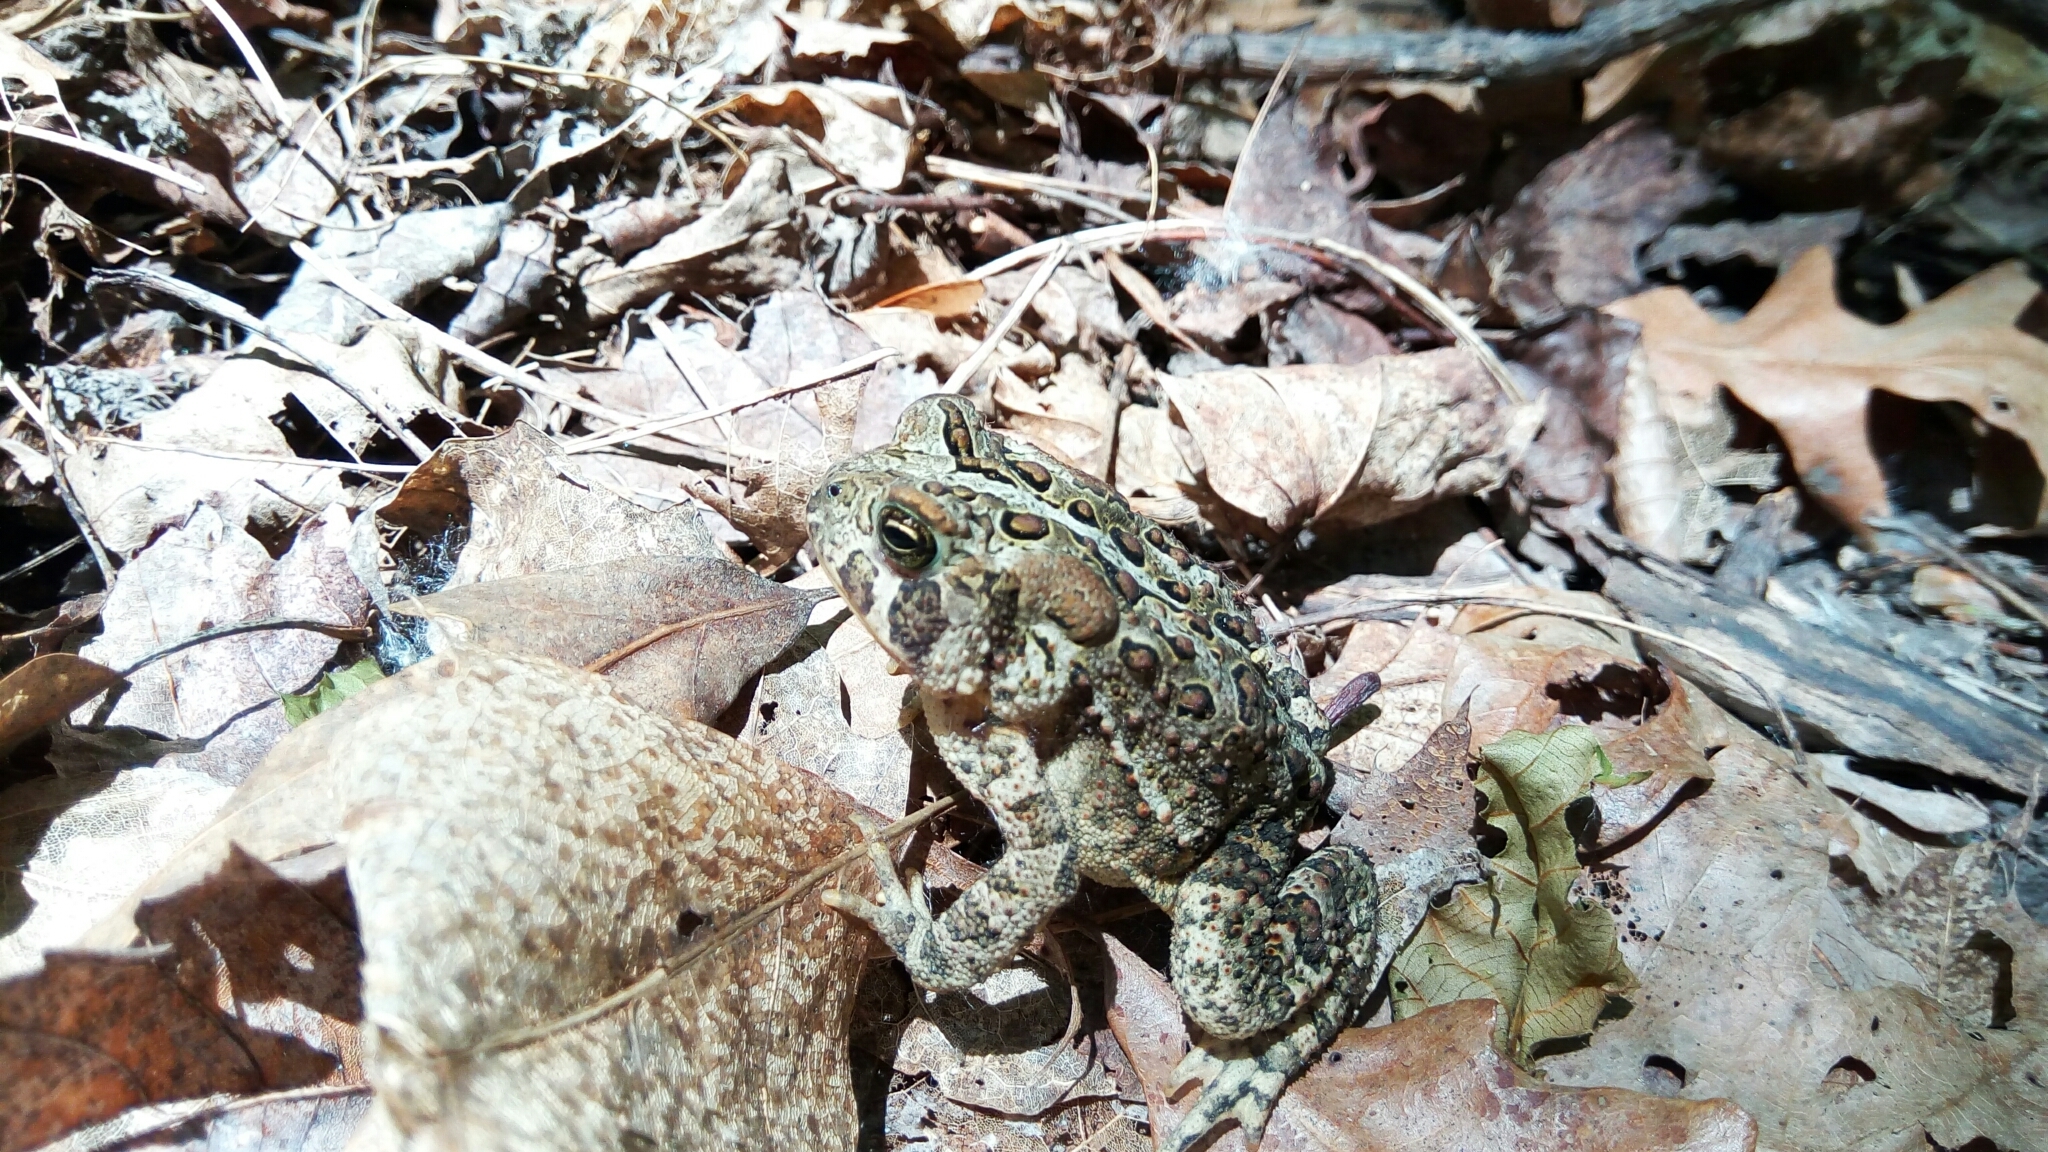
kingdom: Animalia
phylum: Chordata
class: Amphibia
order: Anura
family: Bufonidae
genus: Anaxyrus
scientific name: Anaxyrus americanus
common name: American toad
